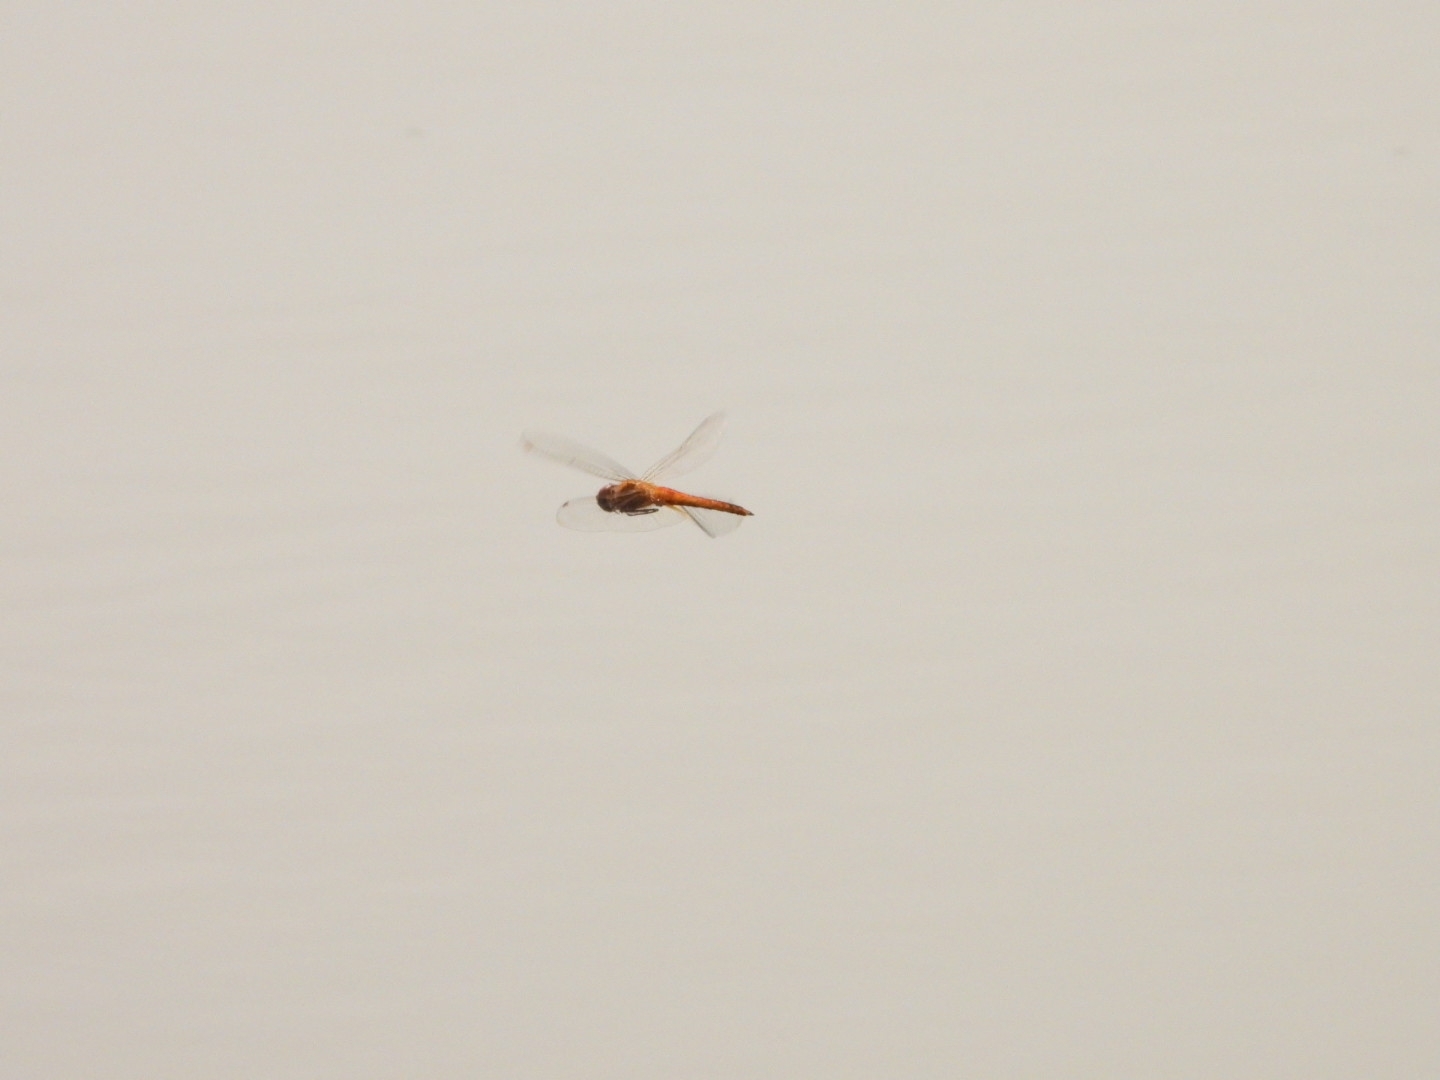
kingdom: Animalia
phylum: Arthropoda
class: Insecta
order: Odonata
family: Libellulidae
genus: Pantala
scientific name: Pantala flavescens
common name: Wandering glider
